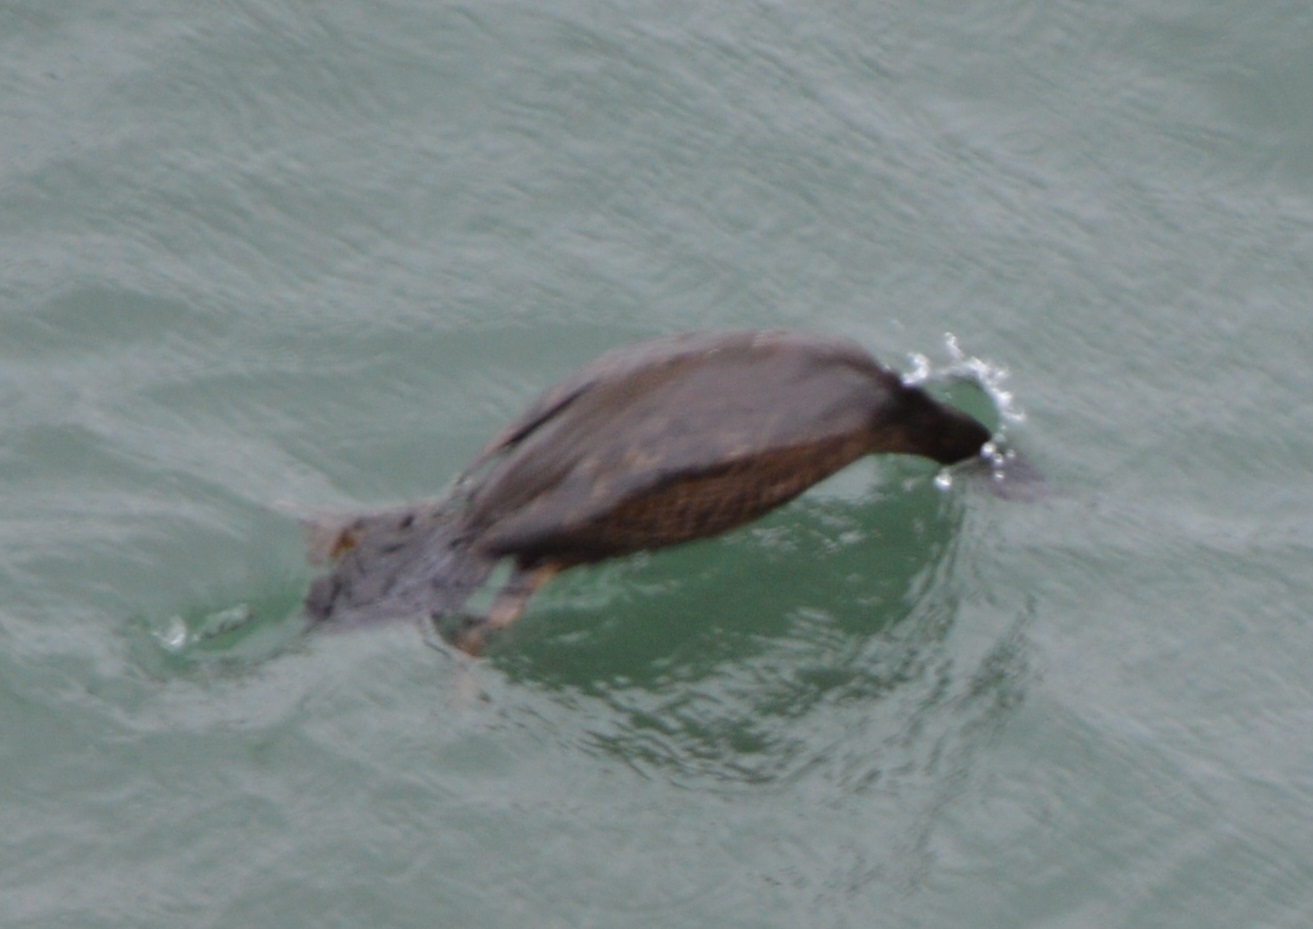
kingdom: Animalia
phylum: Chordata
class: Aves
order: Suliformes
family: Phalacrocoracidae
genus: Phalacrocorax
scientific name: Phalacrocorax aristotelis
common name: European shag
